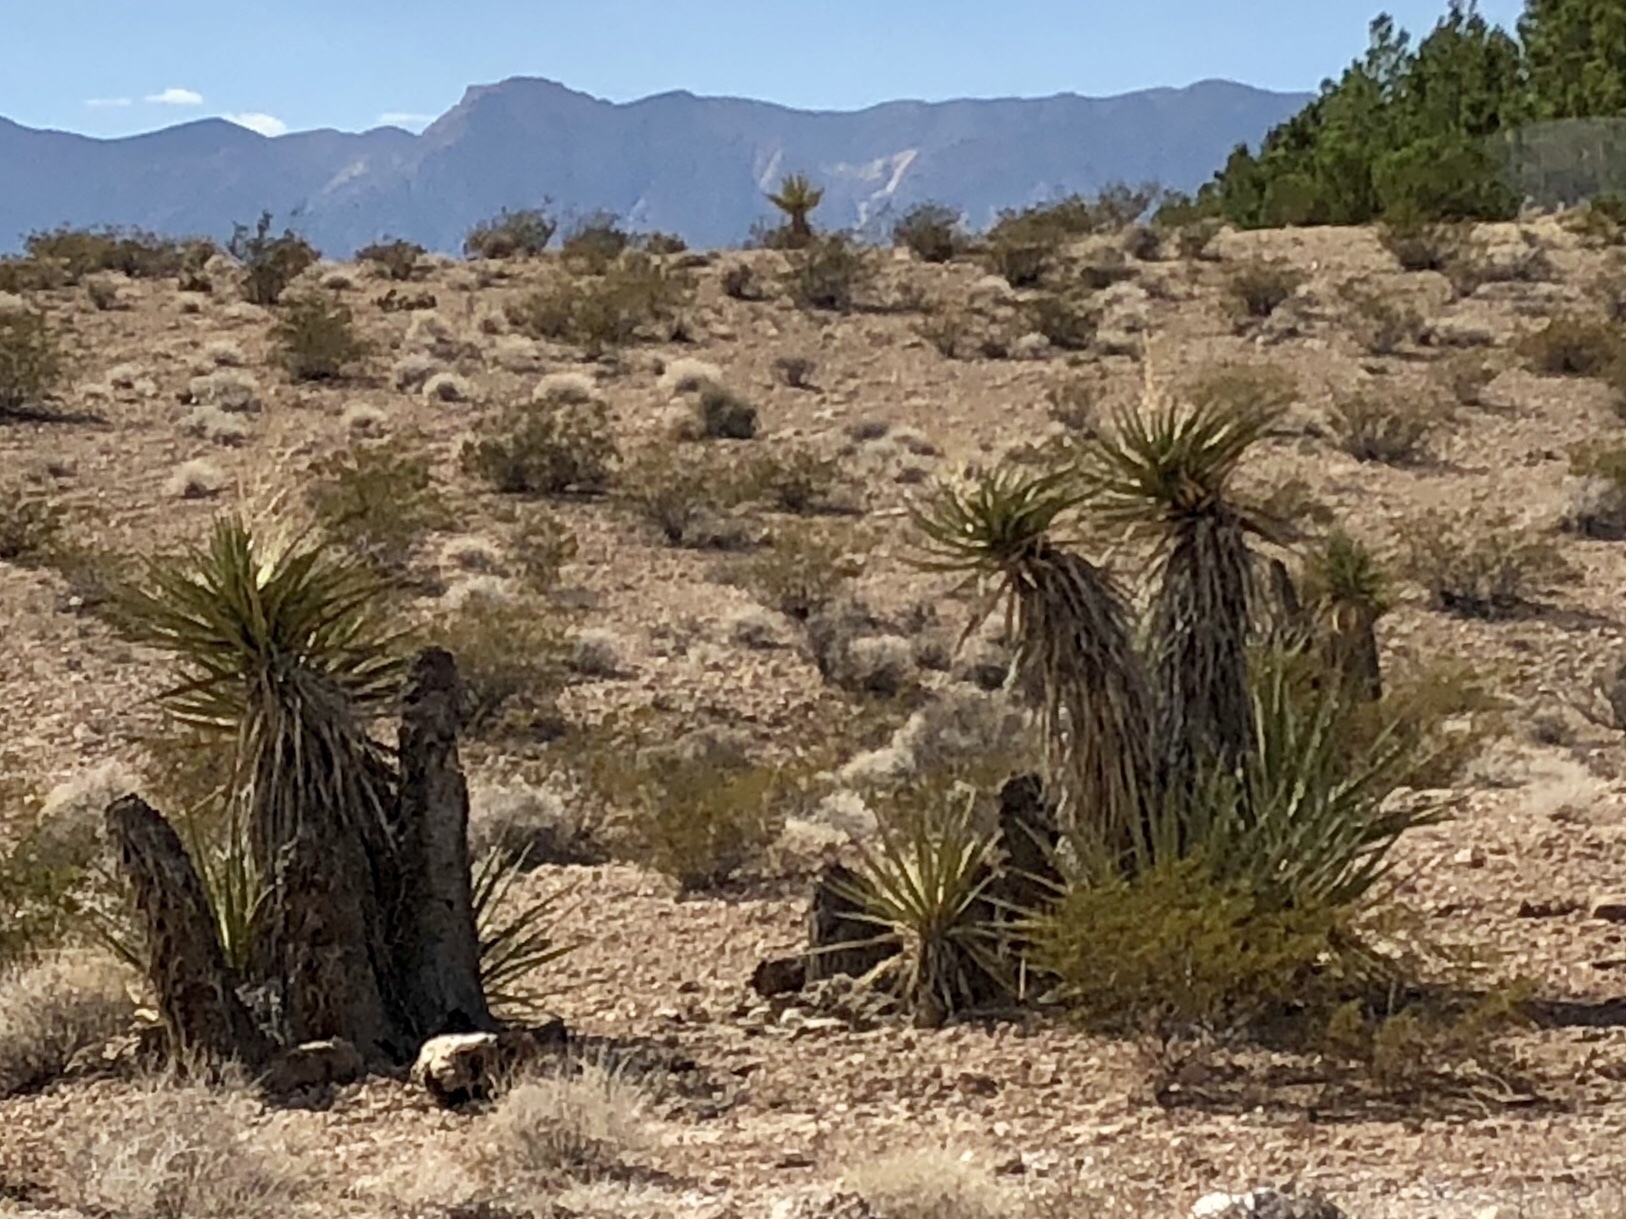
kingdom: Plantae
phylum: Tracheophyta
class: Liliopsida
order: Asparagales
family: Asparagaceae
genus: Yucca
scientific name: Yucca schidigera
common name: Mojave yucca
